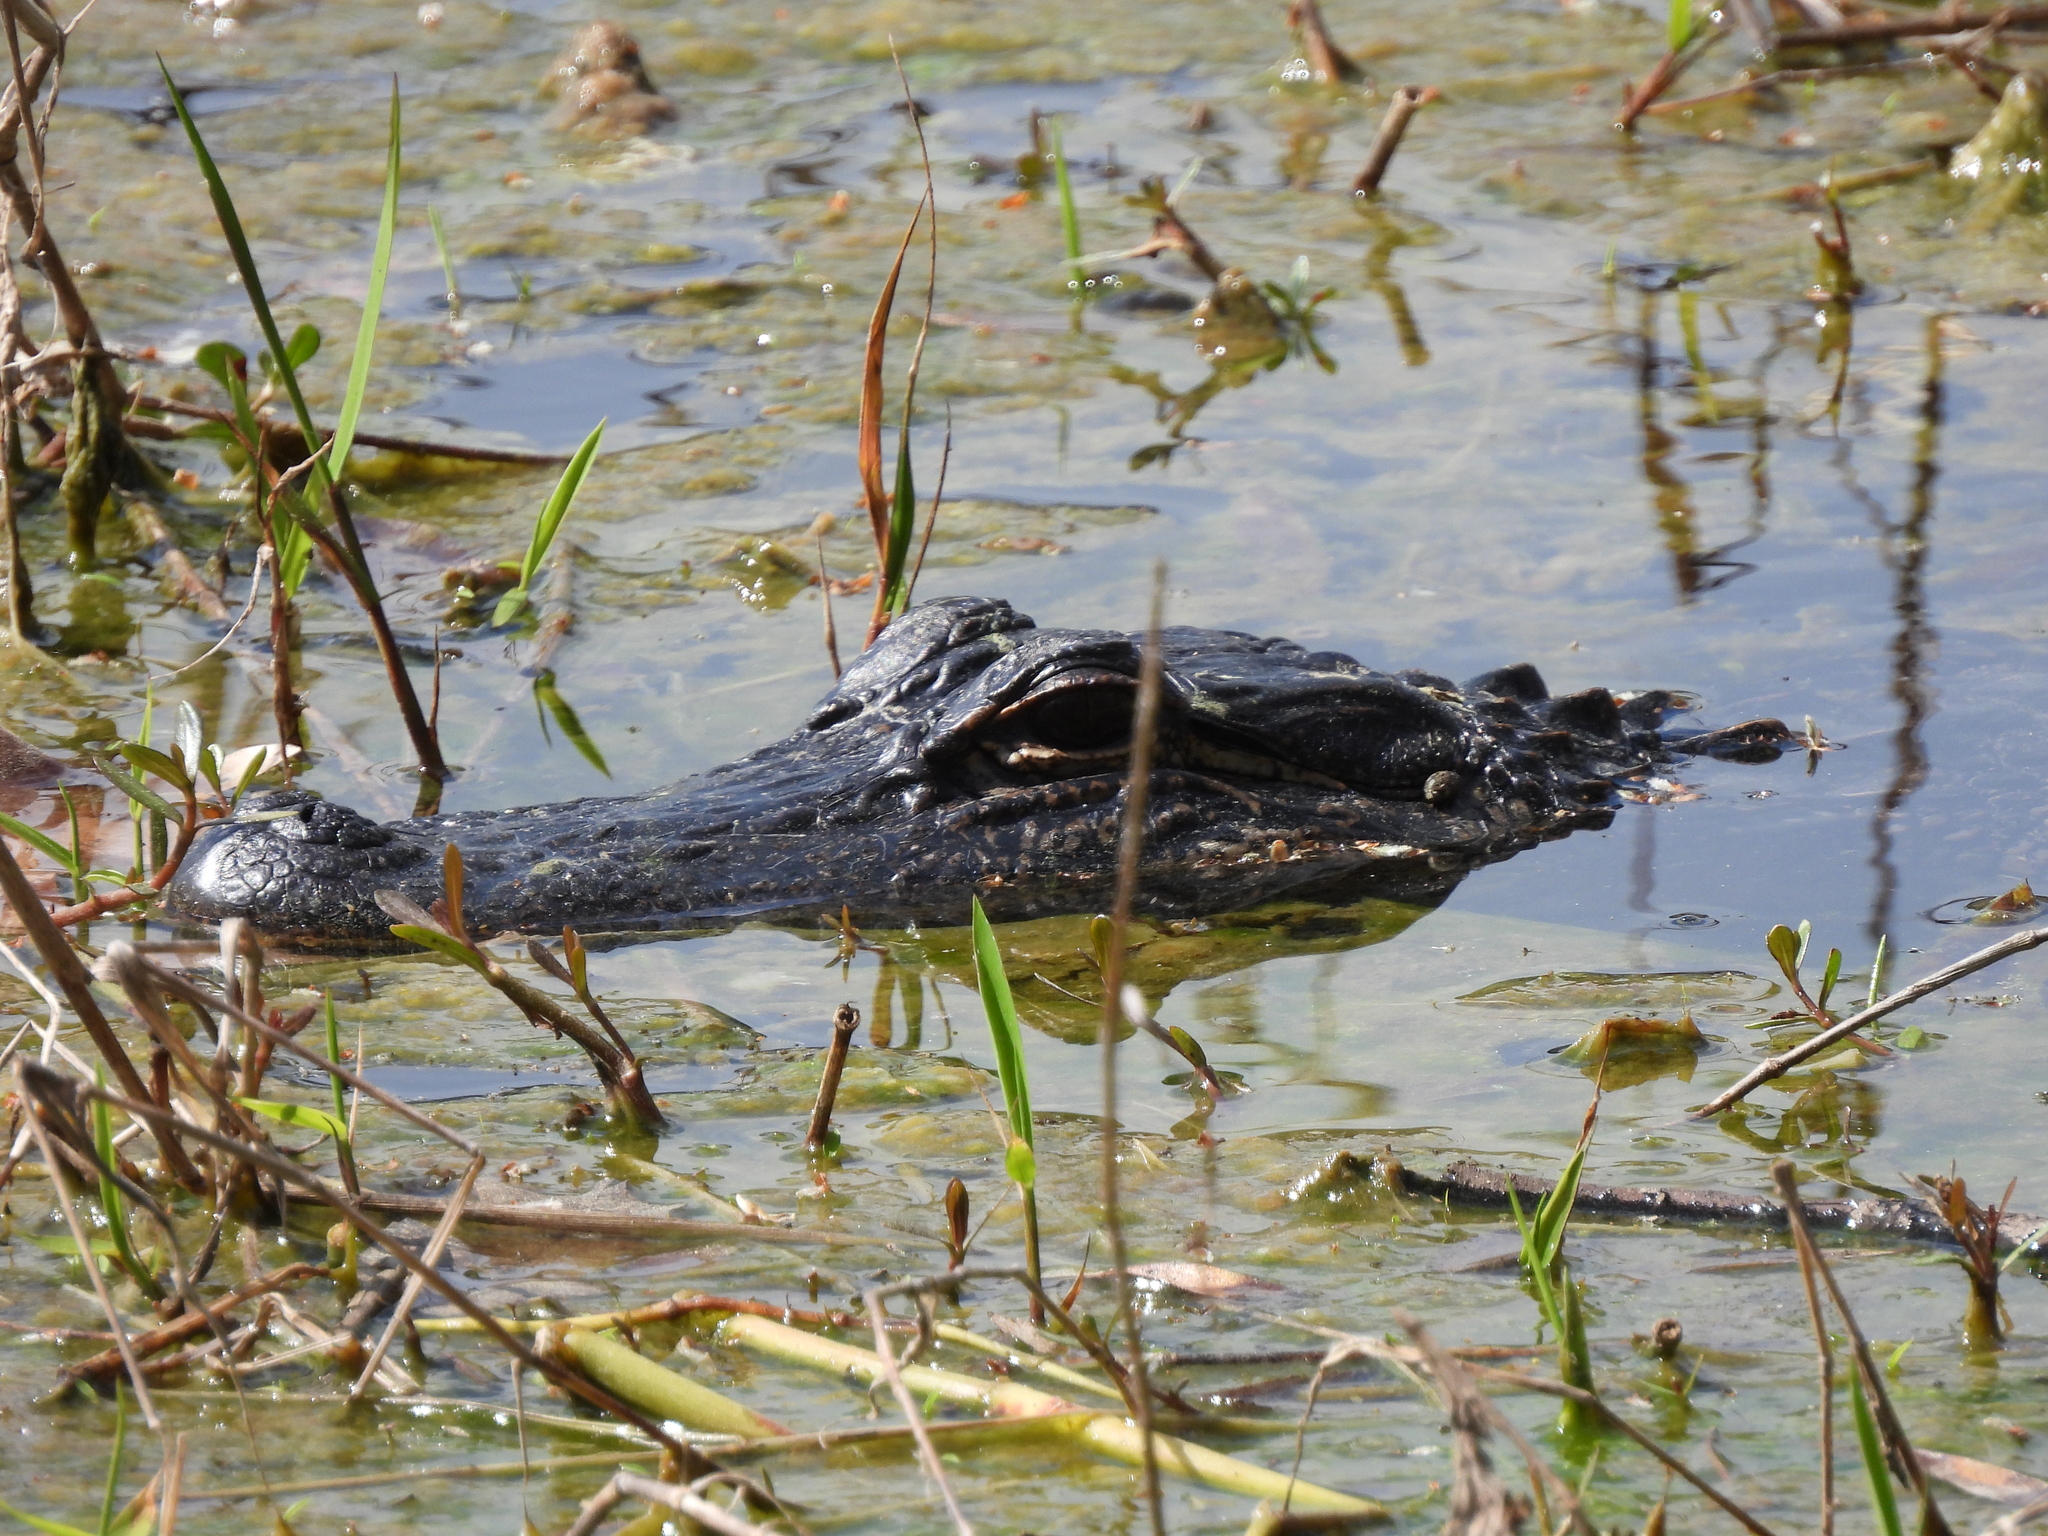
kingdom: Animalia
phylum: Chordata
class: Crocodylia
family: Alligatoridae
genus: Alligator
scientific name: Alligator mississippiensis
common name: American alligator
